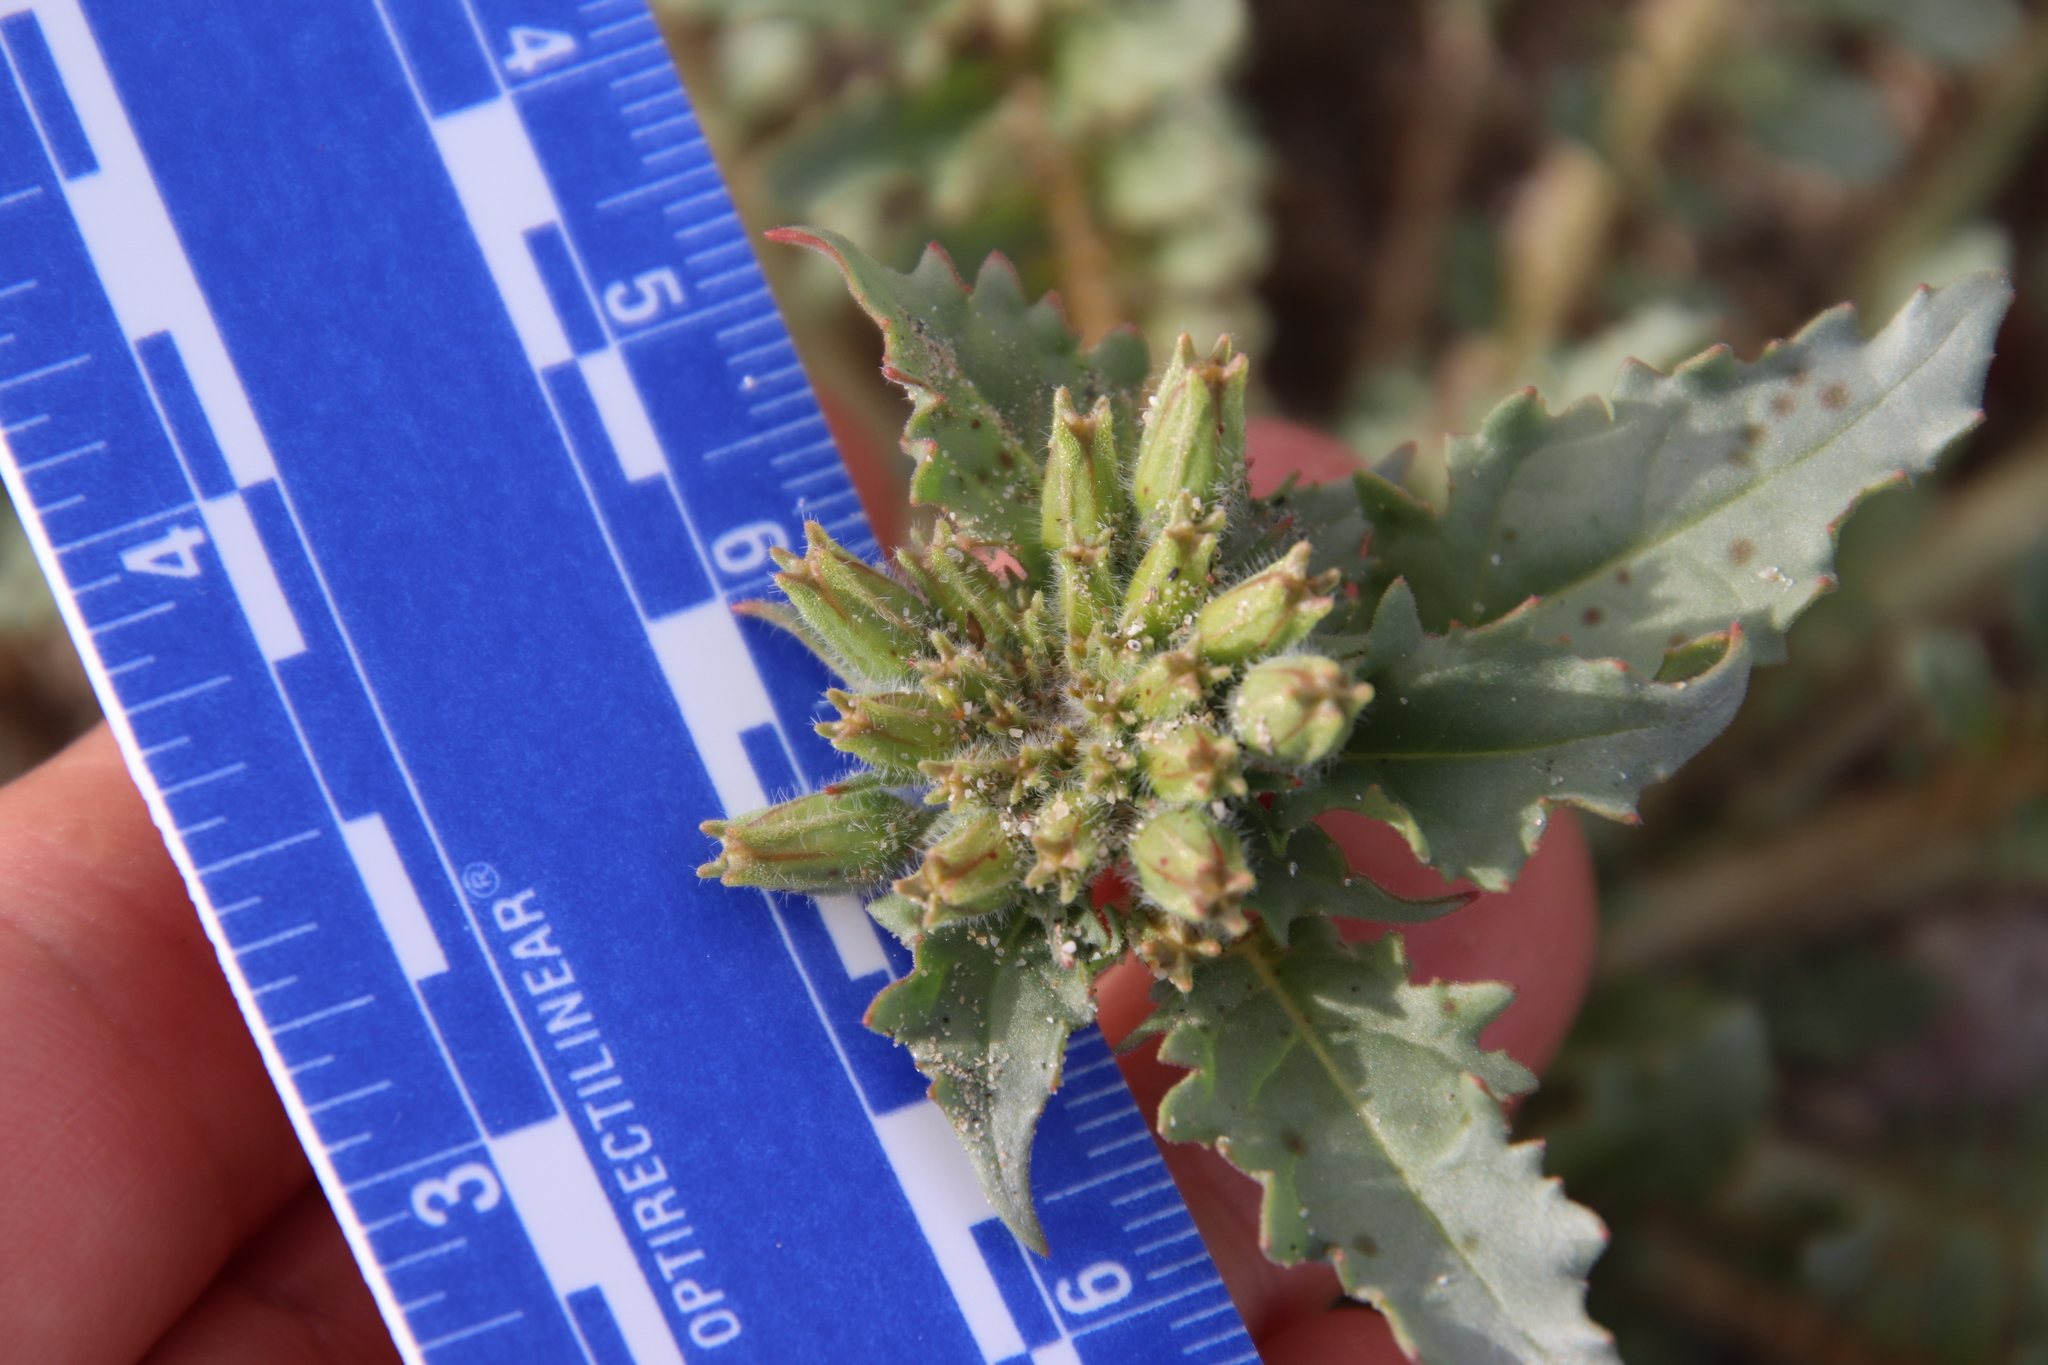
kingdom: Plantae
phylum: Tracheophyta
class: Magnoliopsida
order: Myrtales
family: Onagraceae
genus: Chylismia
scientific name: Chylismia claviformis
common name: Browneyes
